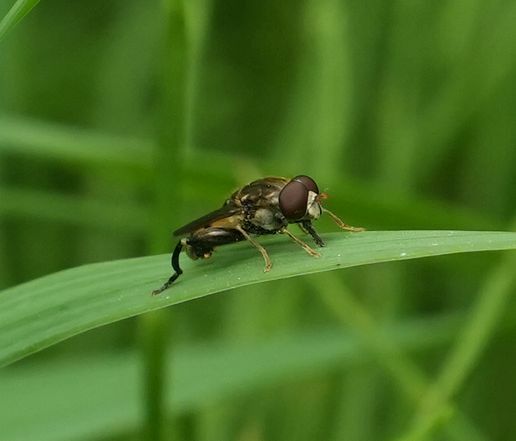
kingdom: Animalia
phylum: Arthropoda
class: Insecta
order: Diptera
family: Syrphidae
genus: Tropidia
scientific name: Tropidia quadrata
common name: Common thick-legged fly
